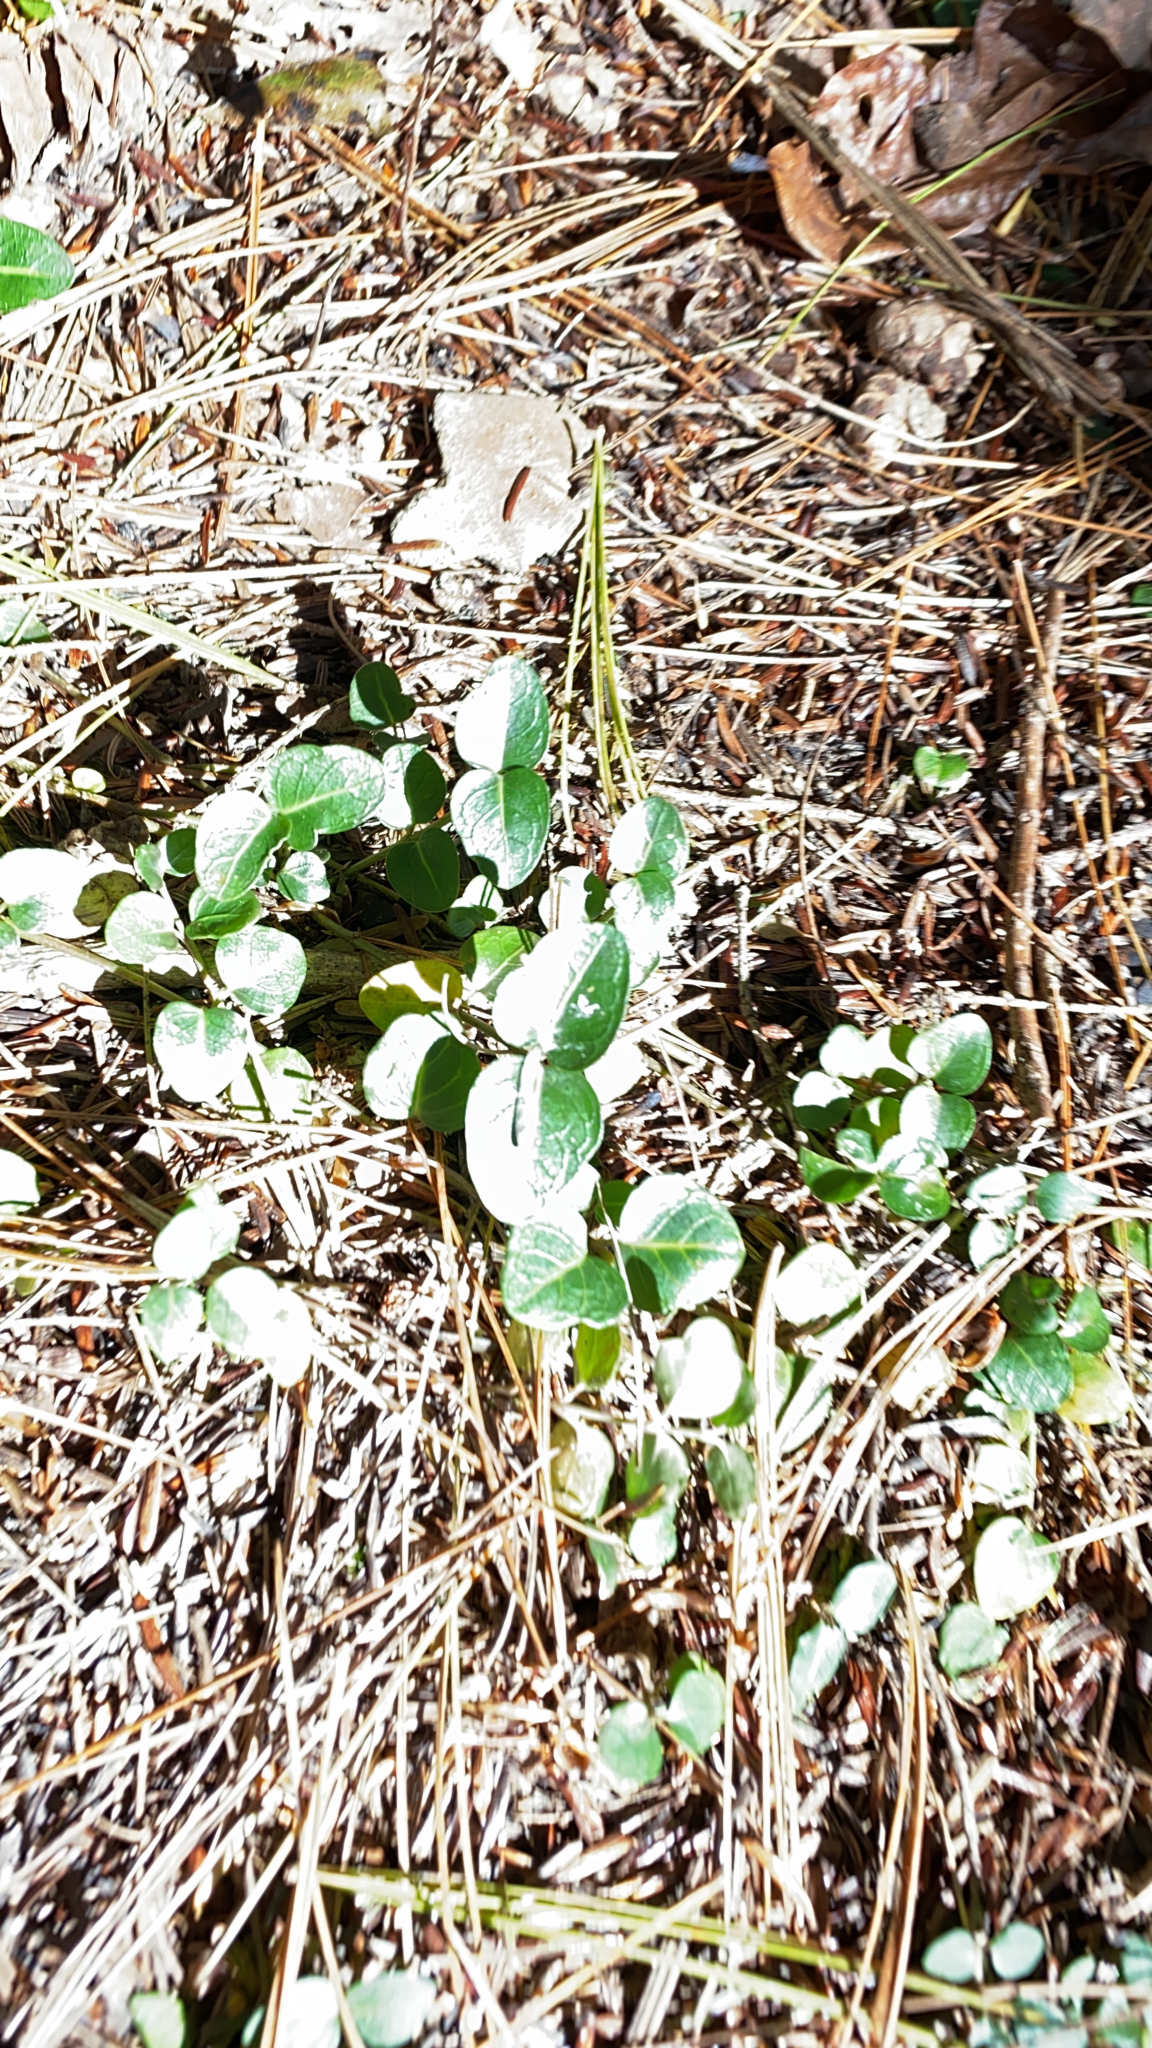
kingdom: Plantae
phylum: Tracheophyta
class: Magnoliopsida
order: Gentianales
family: Rubiaceae
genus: Mitchella
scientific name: Mitchella repens
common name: Partridge-berry
